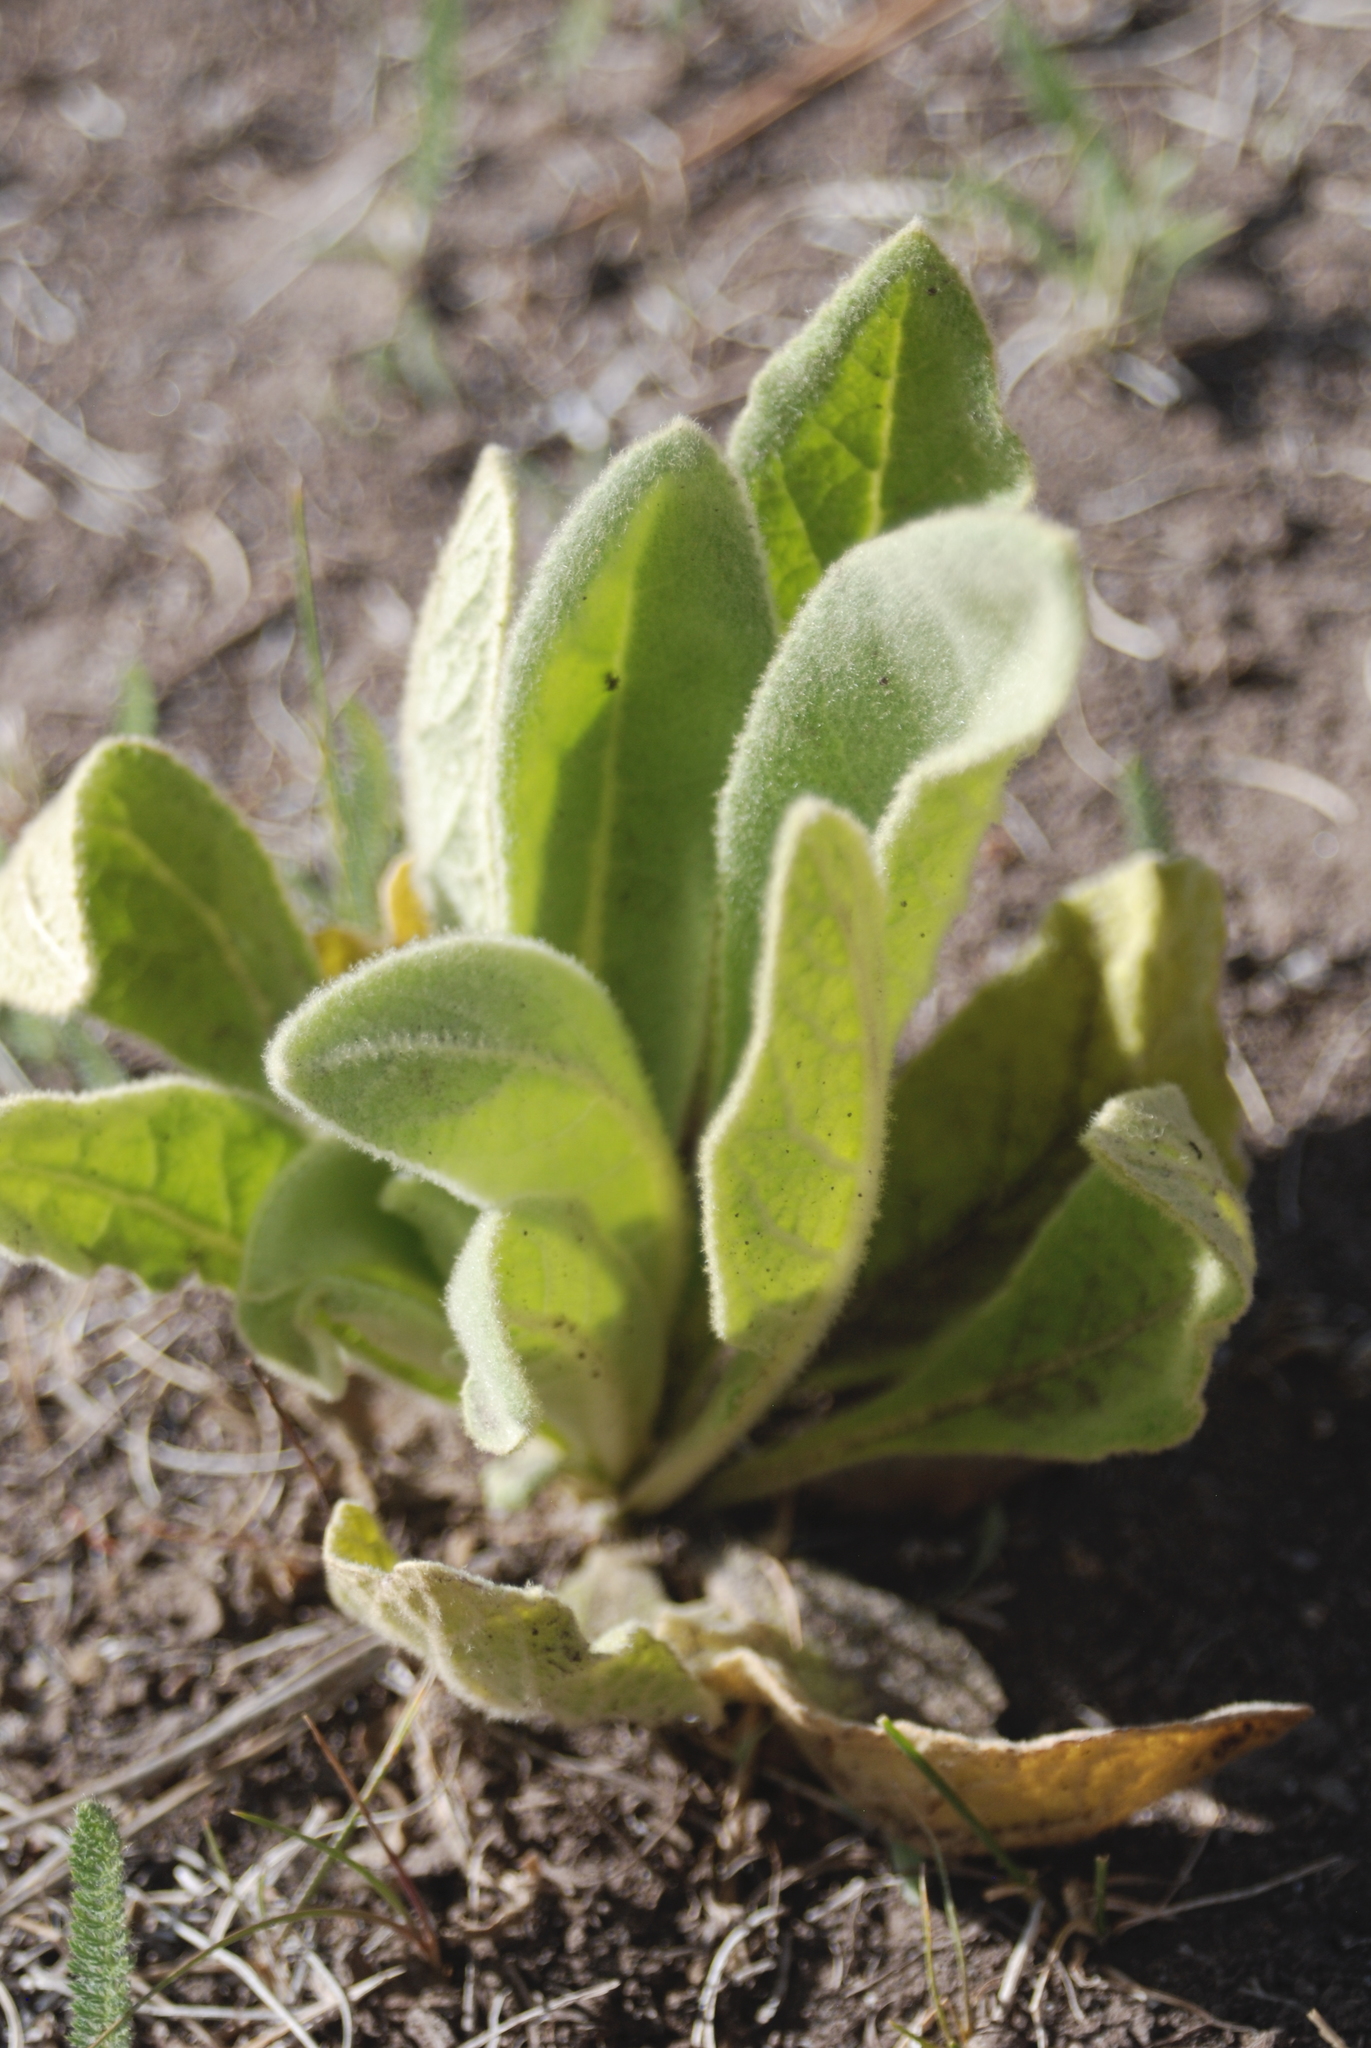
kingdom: Plantae
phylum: Tracheophyta
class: Magnoliopsida
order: Lamiales
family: Scrophulariaceae
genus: Verbascum
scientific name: Verbascum thapsus
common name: Common mullein
